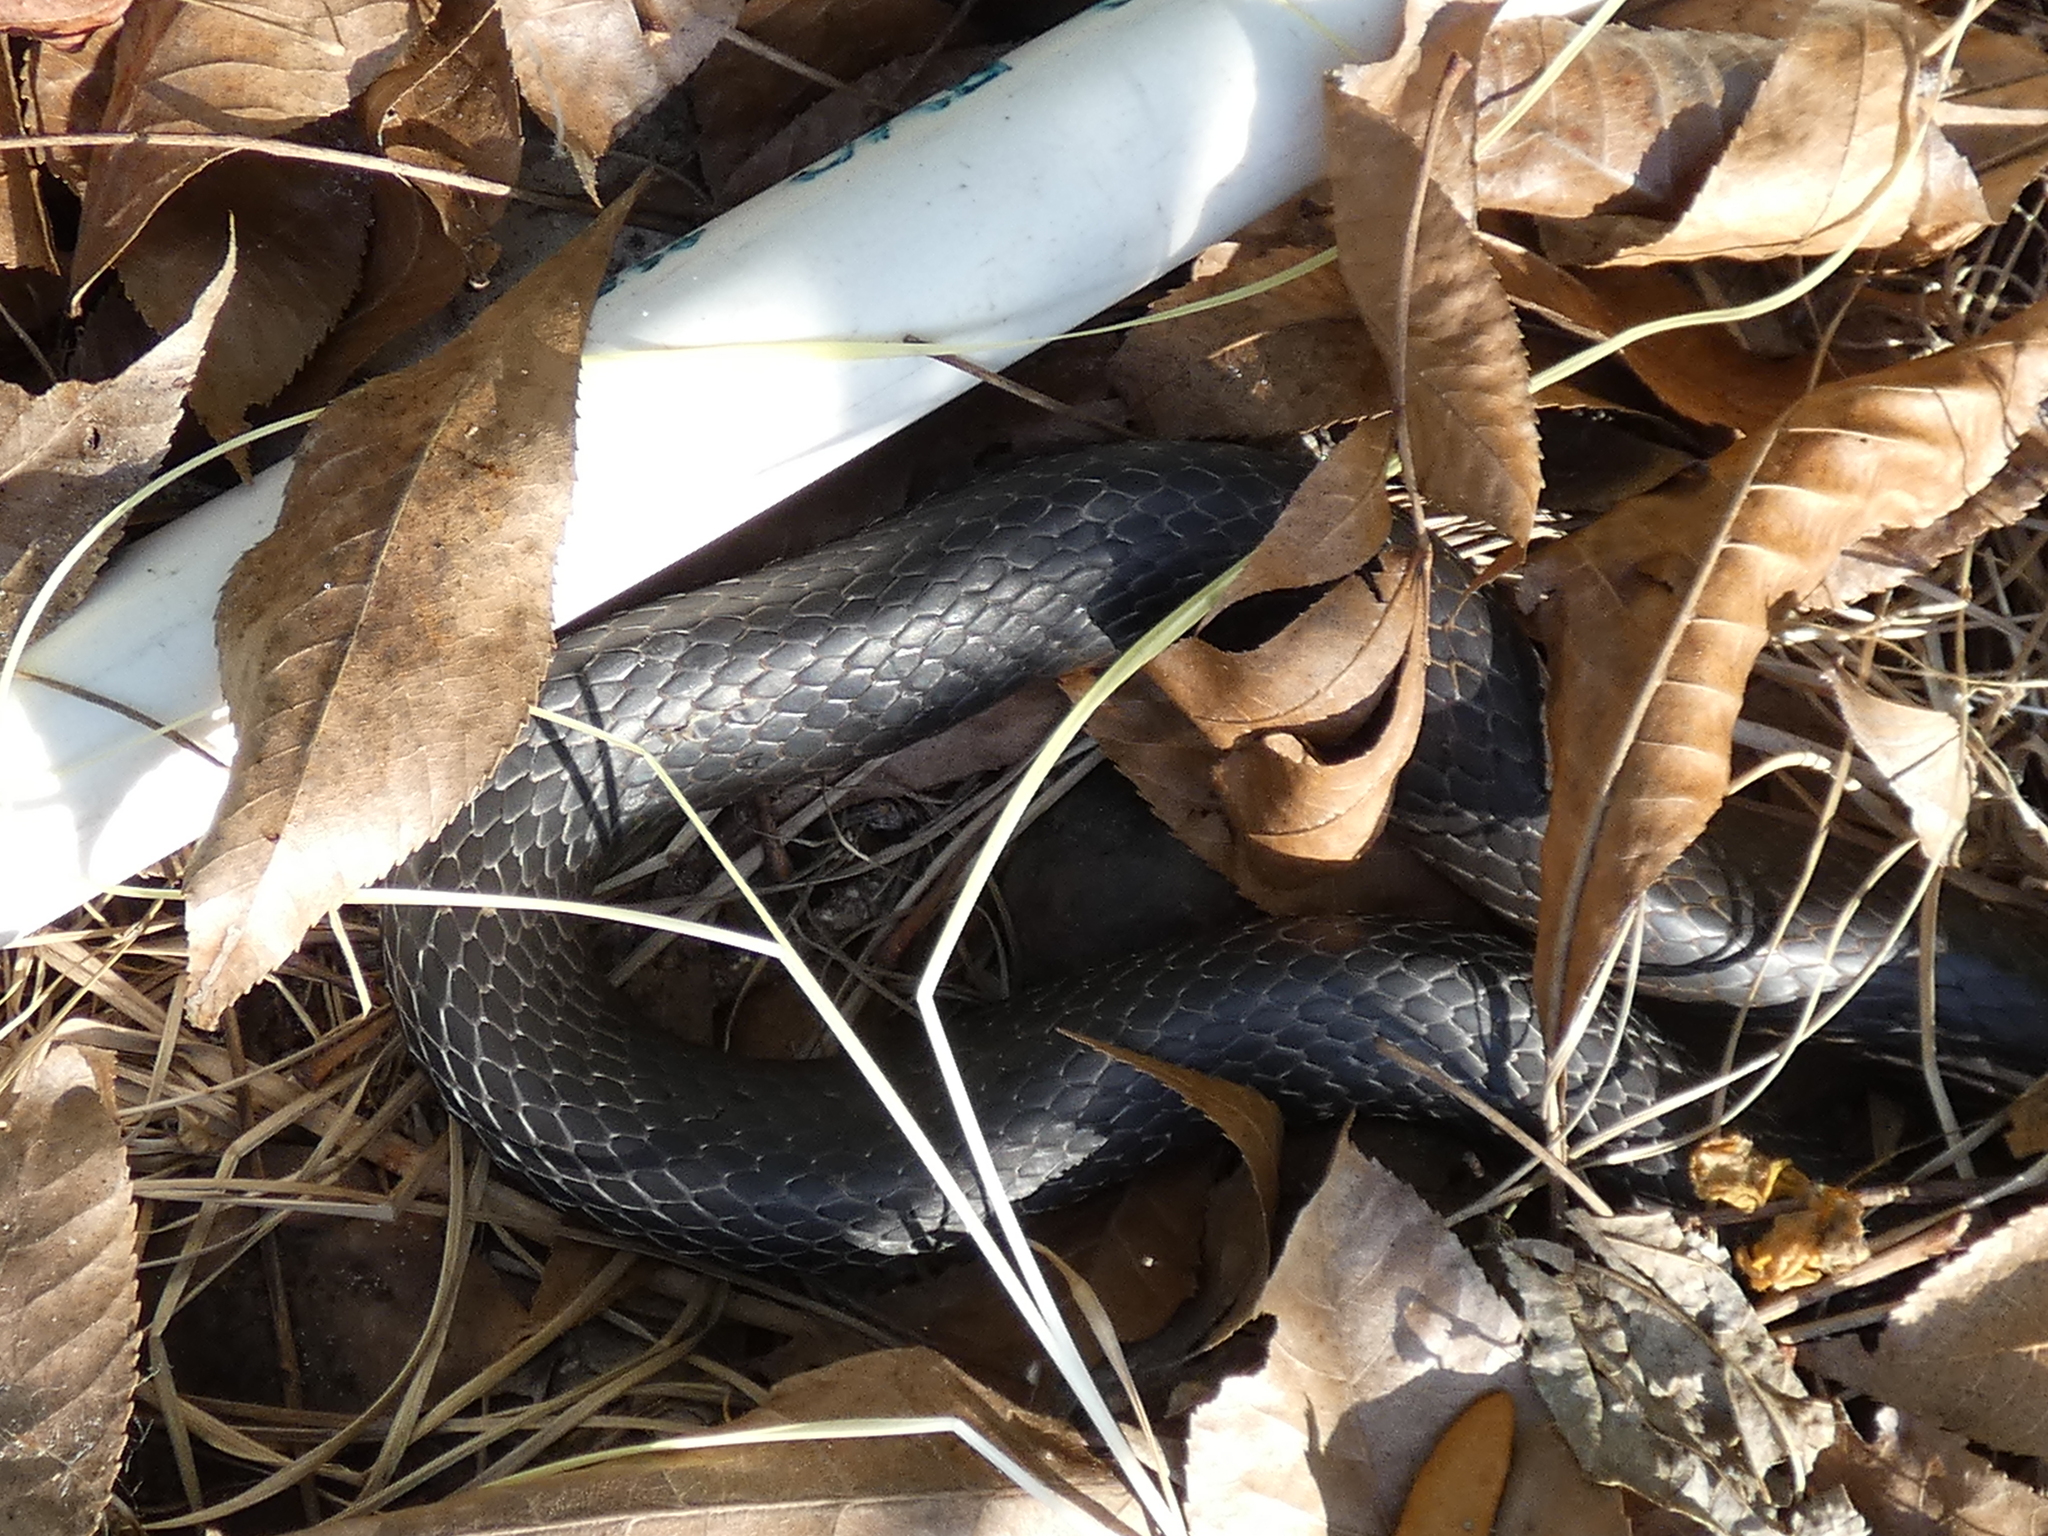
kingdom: Animalia
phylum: Chordata
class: Squamata
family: Colubridae
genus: Coluber
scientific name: Coluber constrictor
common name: Eastern racer
